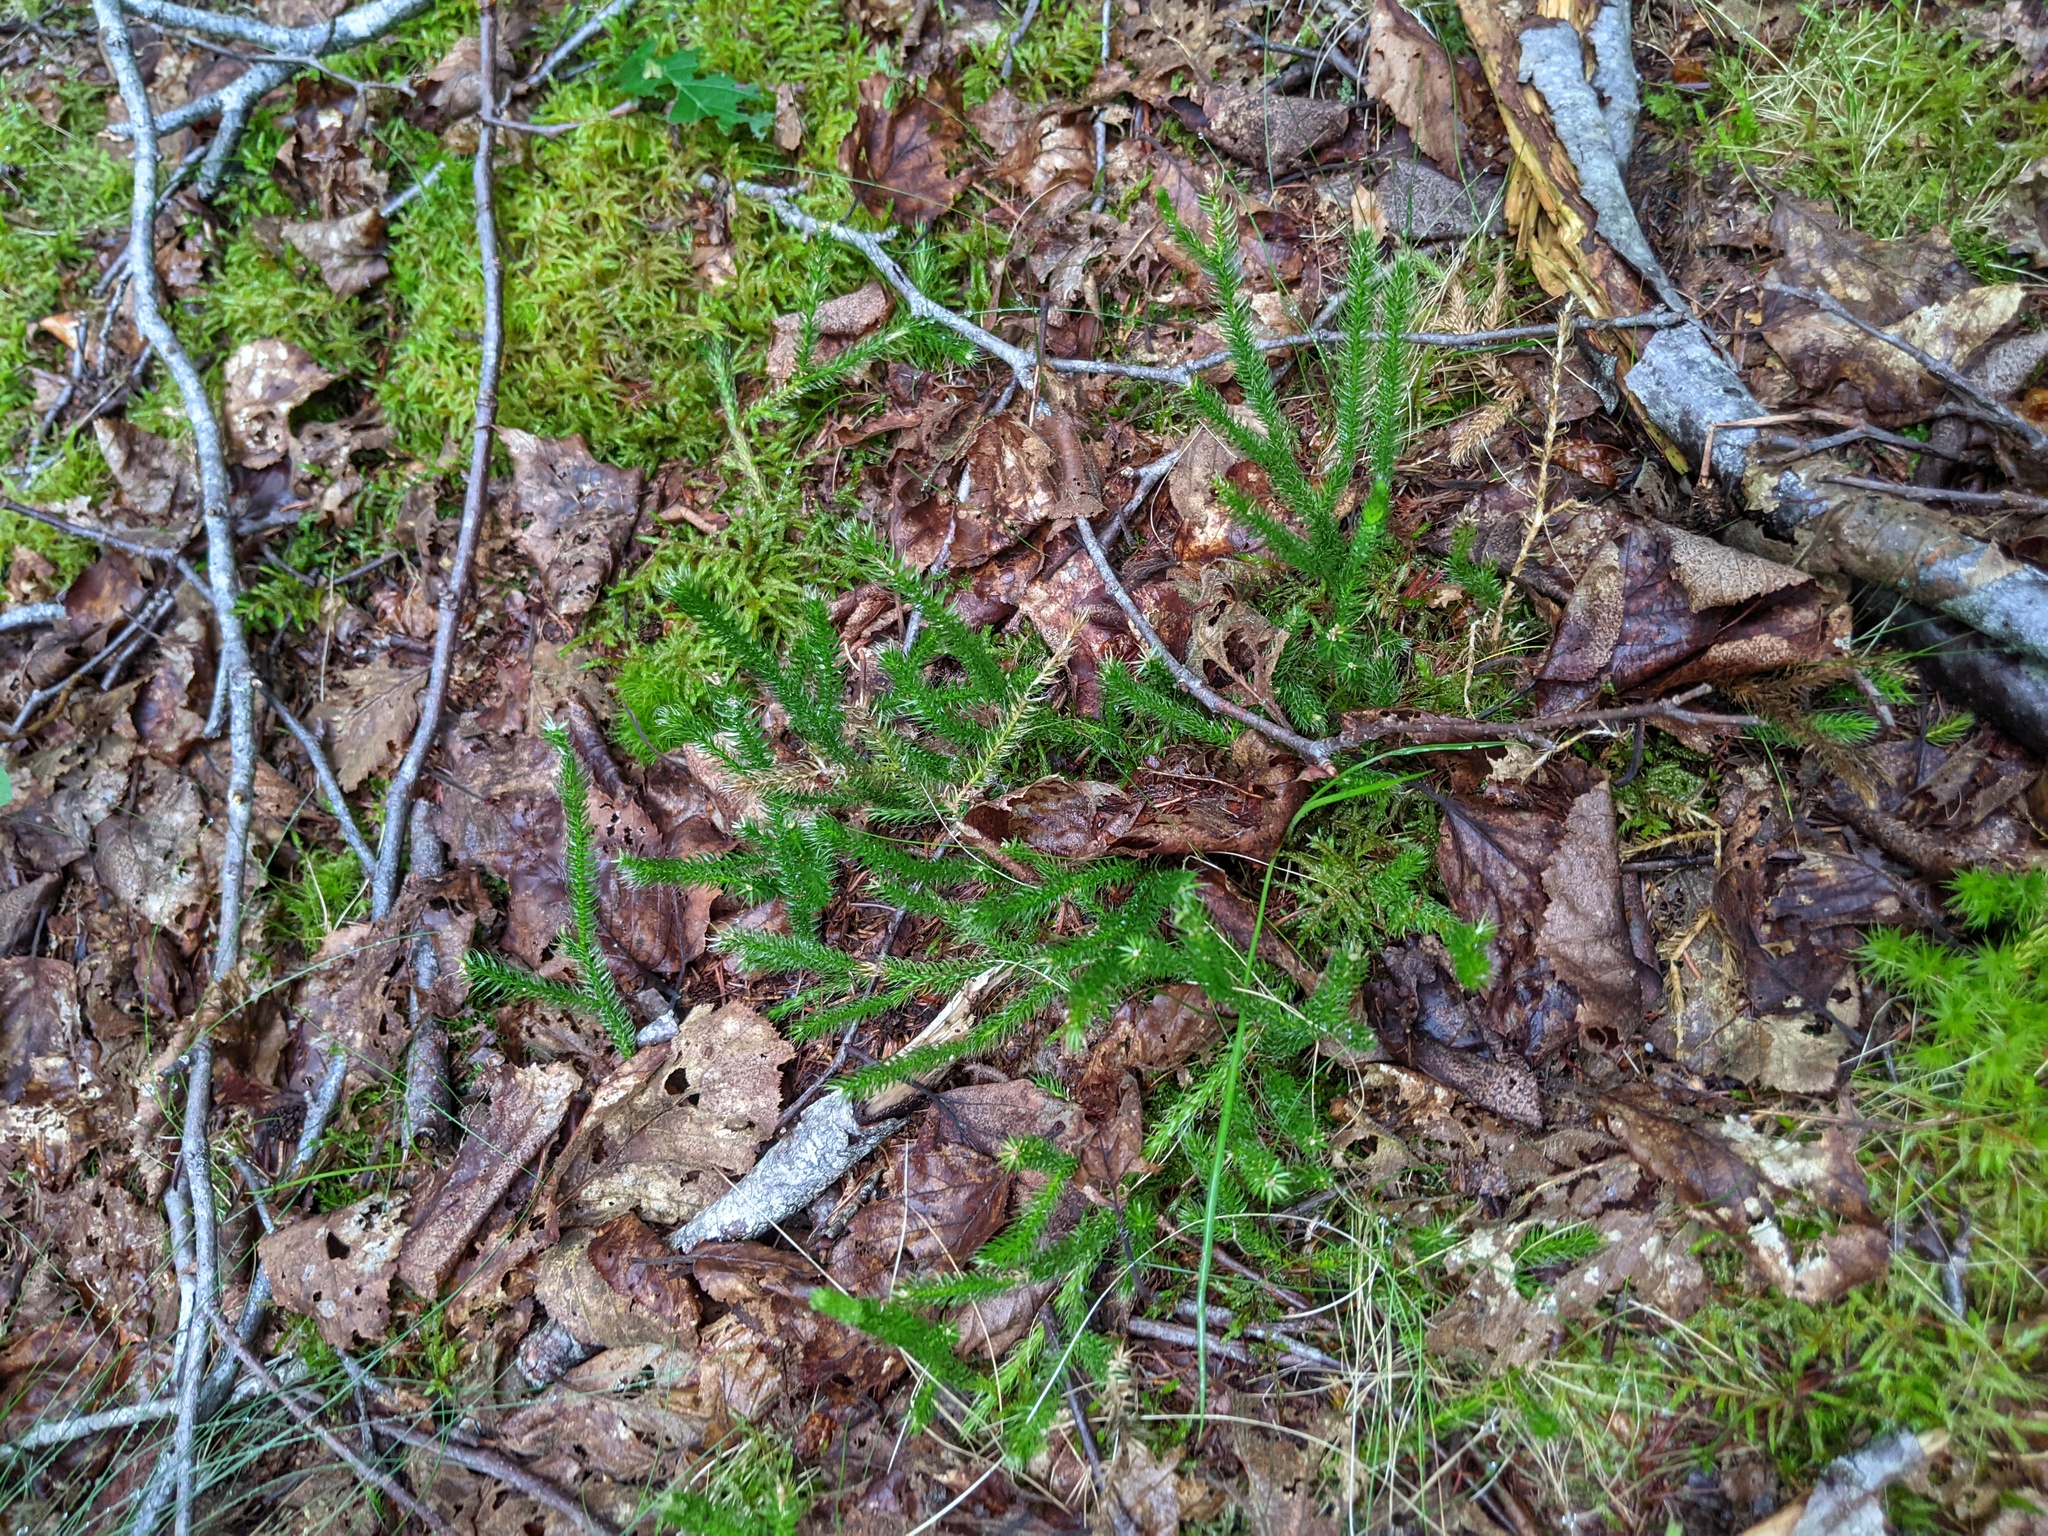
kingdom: Plantae
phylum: Tracheophyta
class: Lycopodiopsida
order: Lycopodiales
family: Lycopodiaceae
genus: Lycopodium
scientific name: Lycopodium clavatum
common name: Stag's-horn clubmoss
